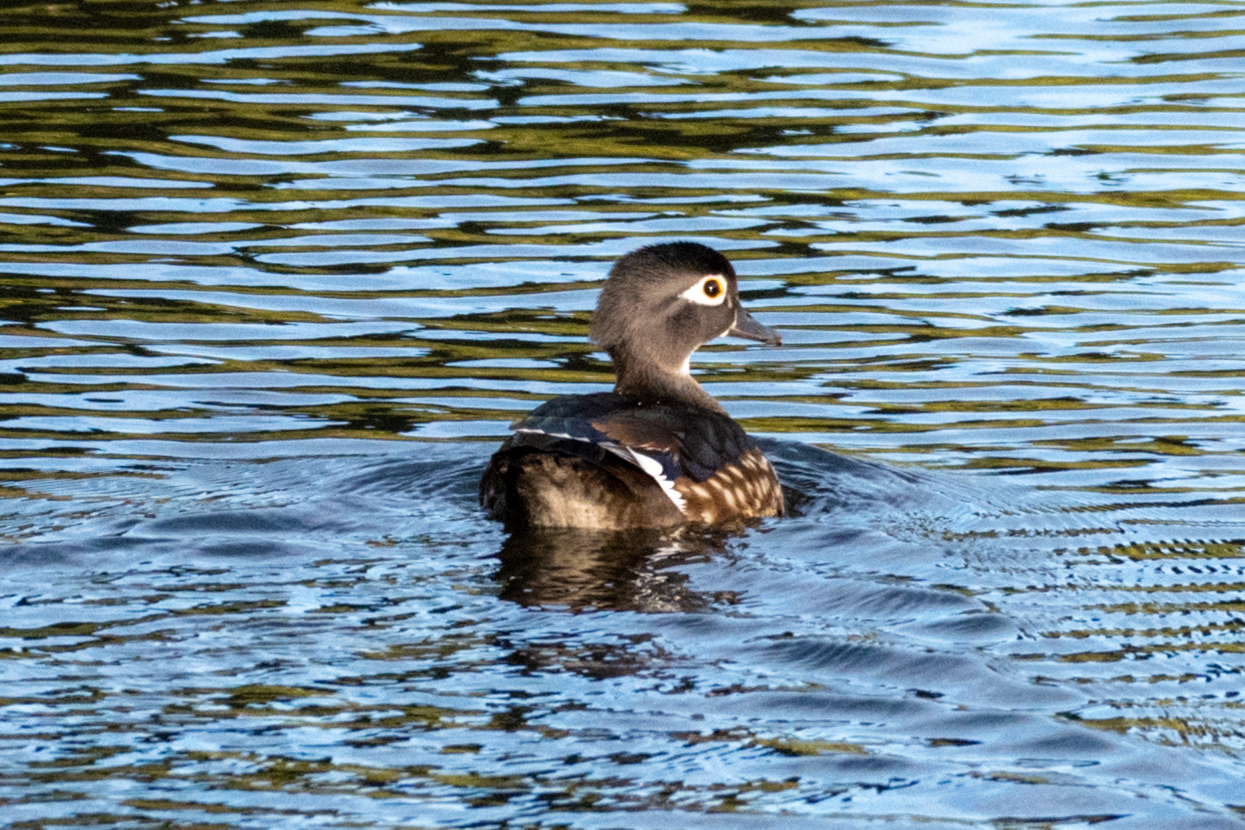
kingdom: Animalia
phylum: Chordata
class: Aves
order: Anseriformes
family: Anatidae
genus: Aix
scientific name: Aix sponsa
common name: Wood duck
